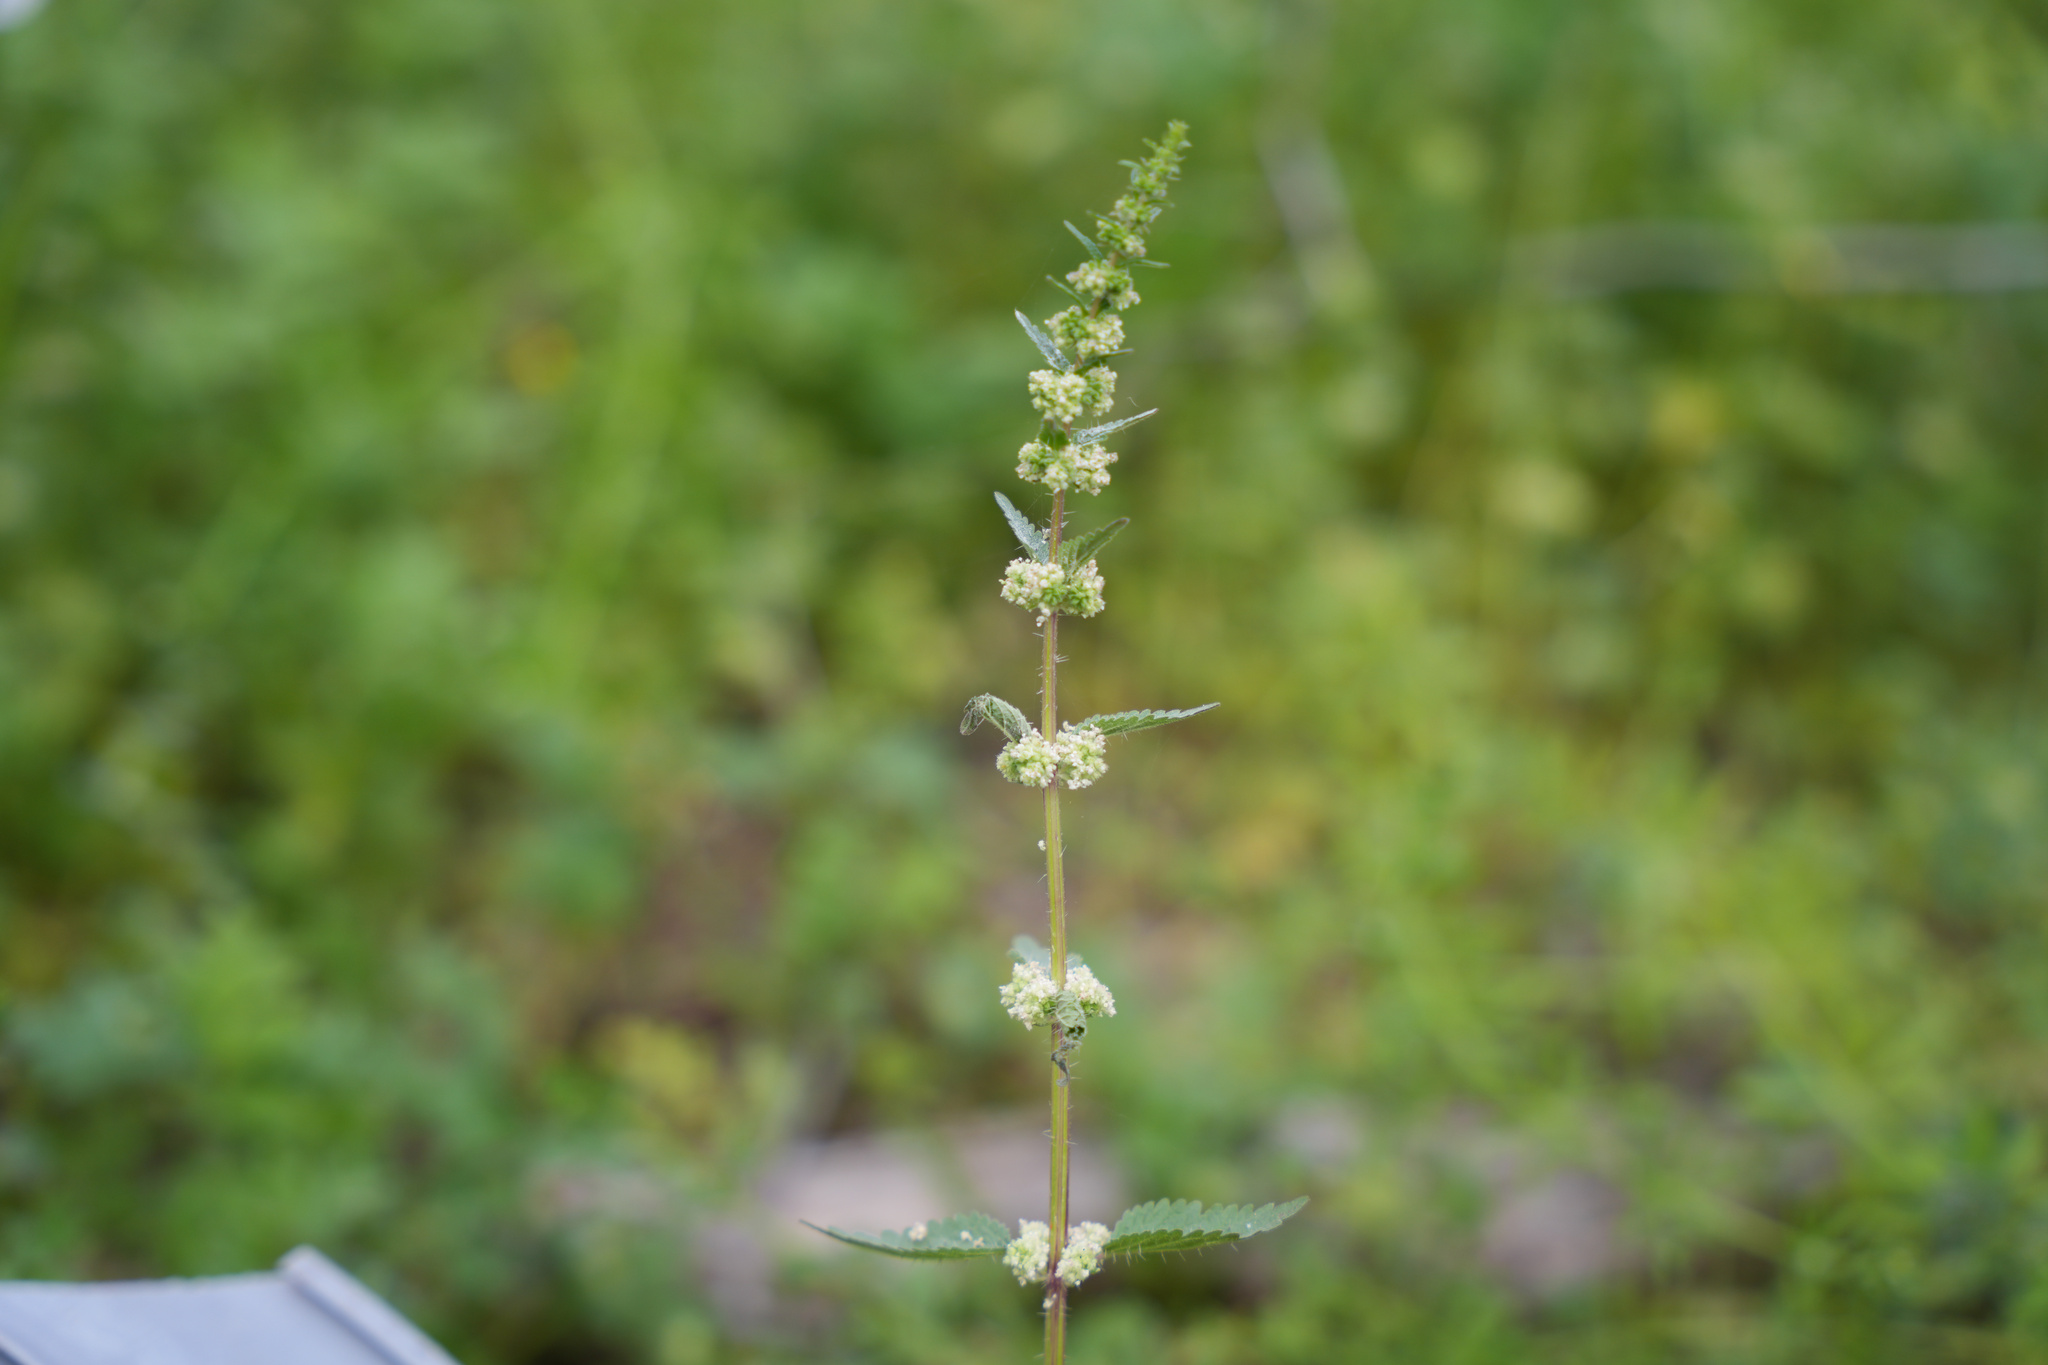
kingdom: Plantae
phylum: Tracheophyta
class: Magnoliopsida
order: Rosales
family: Urticaceae
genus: Urtica
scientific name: Urtica chamaedryoides
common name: Heart-leaf nettle
